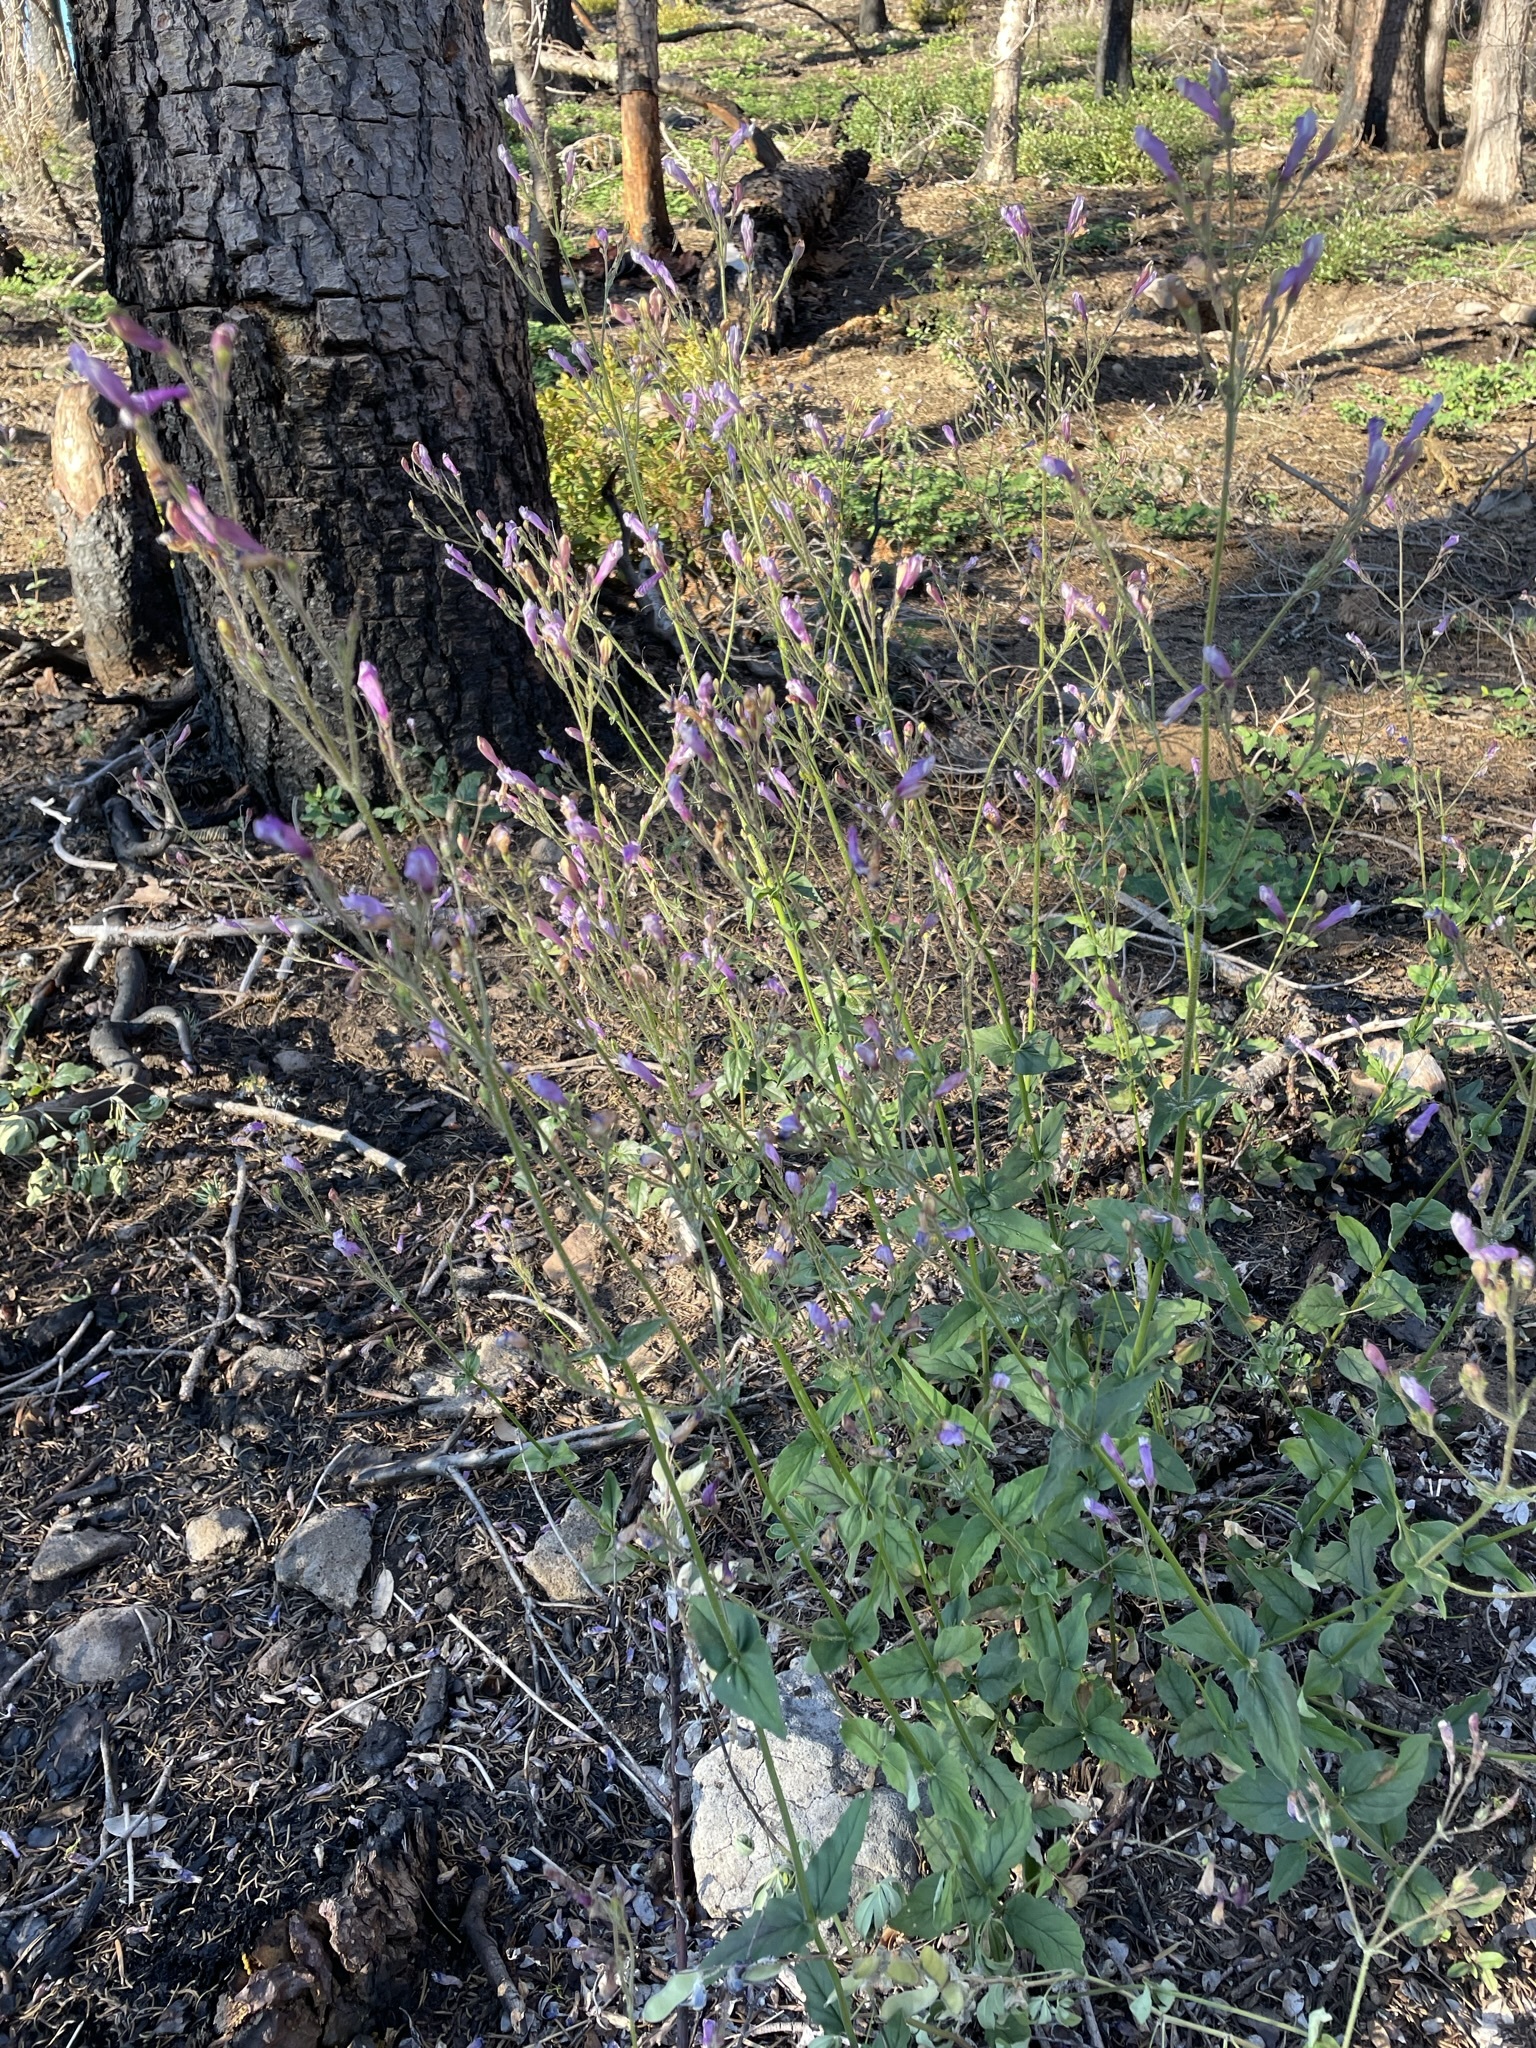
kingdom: Plantae
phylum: Tracheophyta
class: Magnoliopsida
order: Lamiales
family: Plantaginaceae
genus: Penstemon
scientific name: Penstemon personatus
